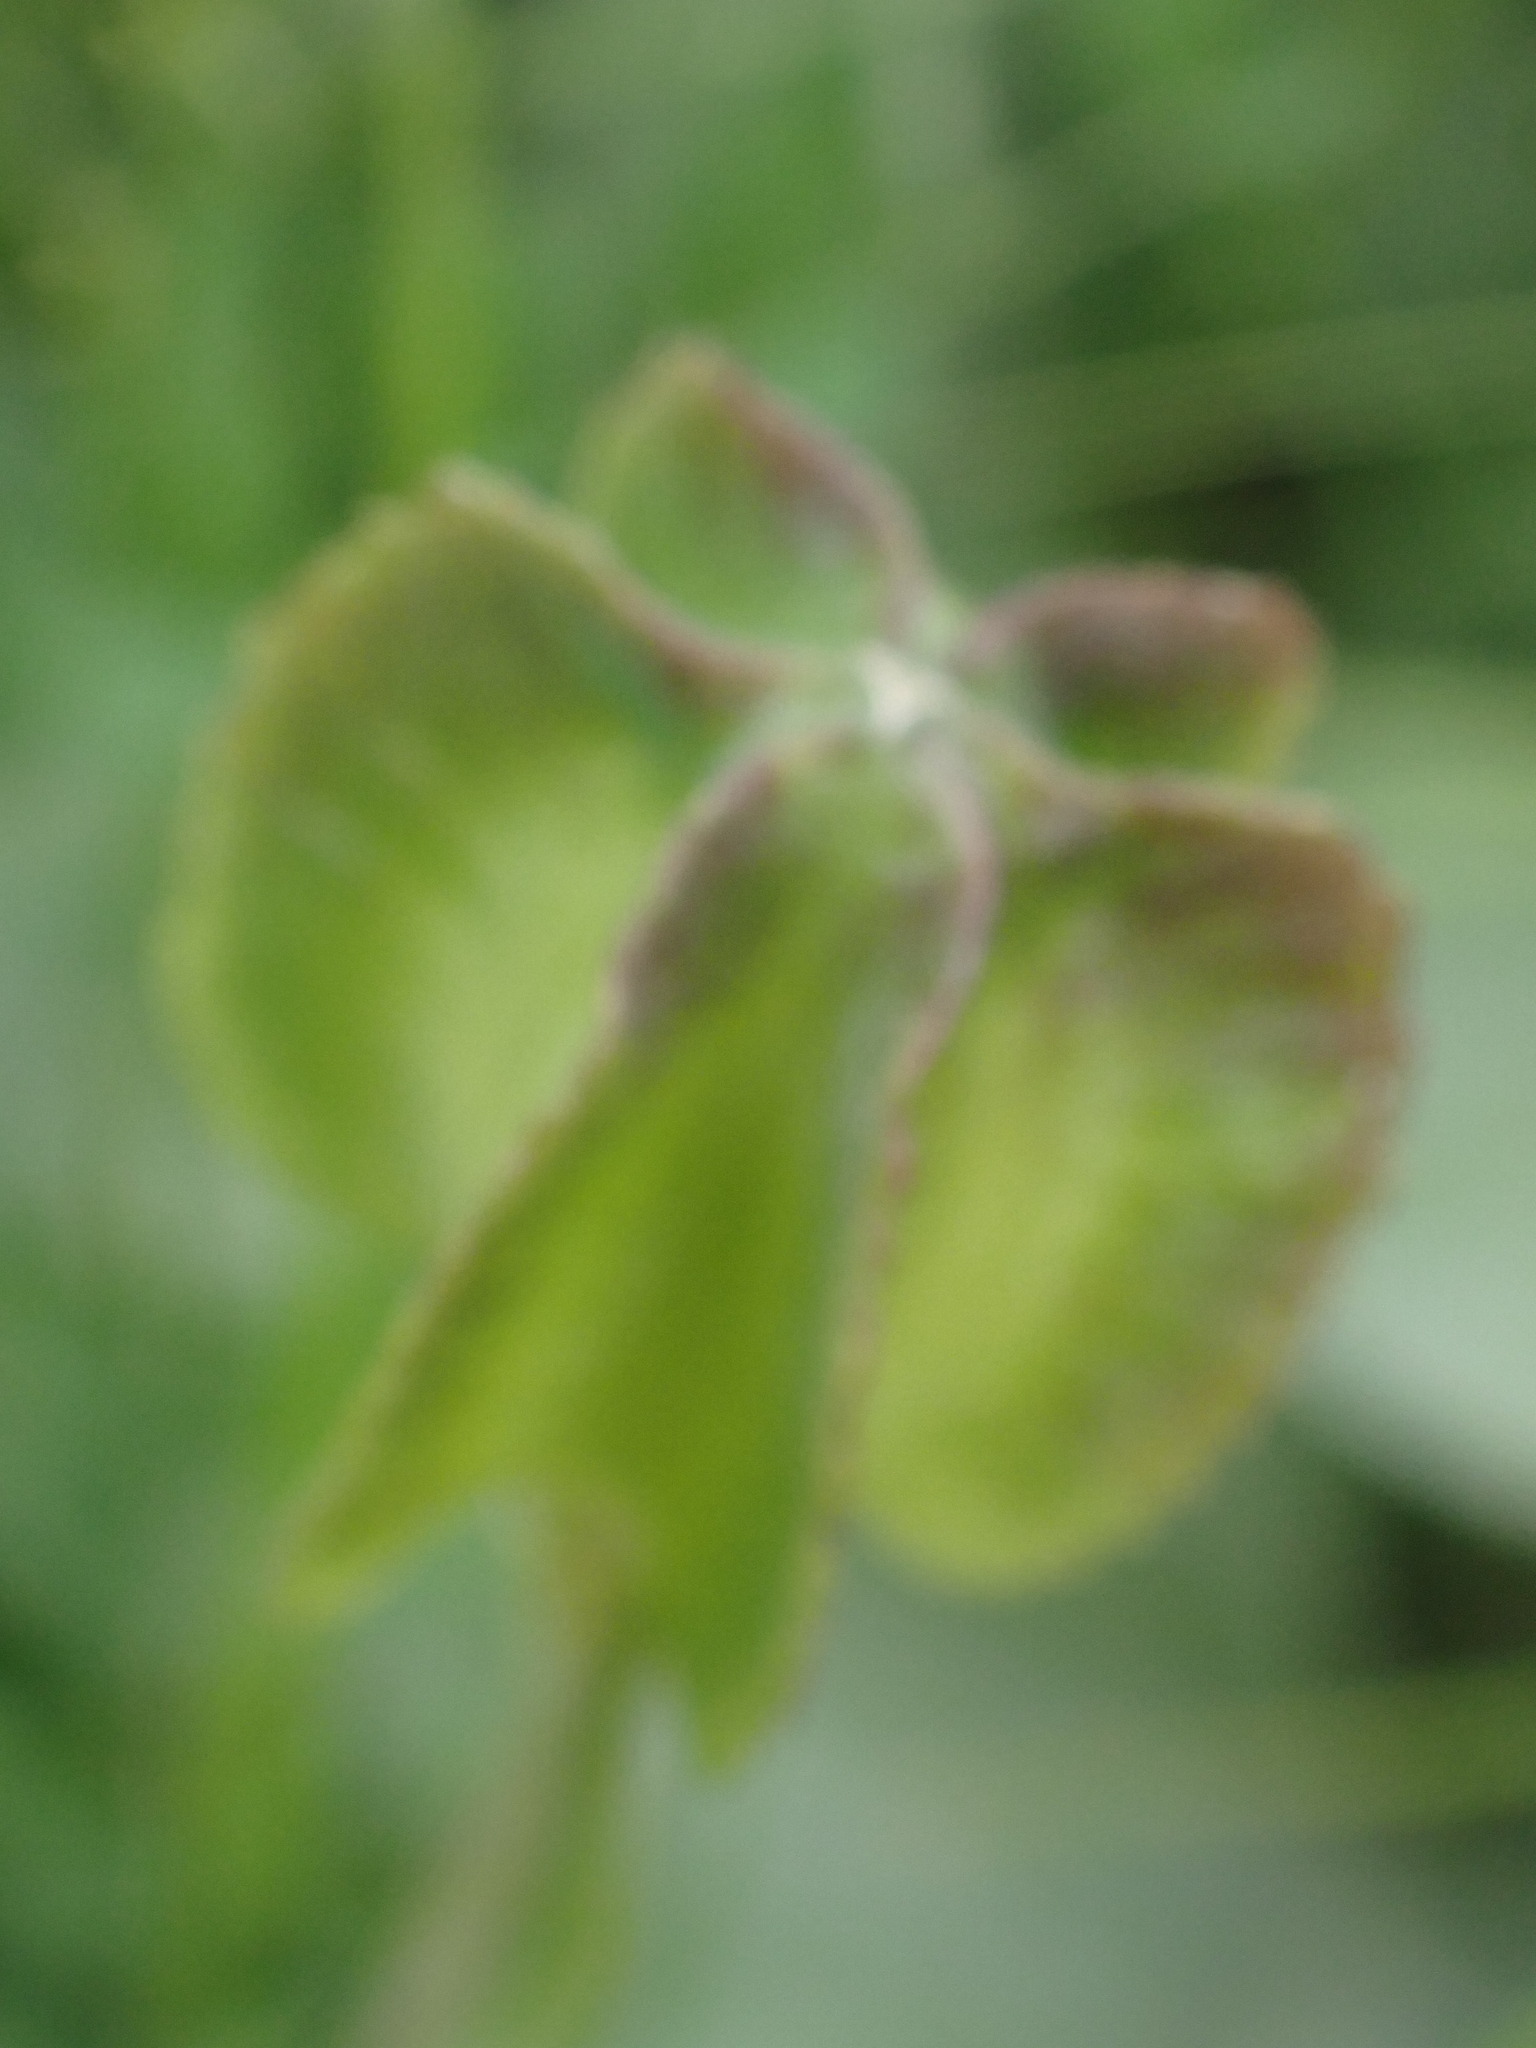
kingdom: Plantae
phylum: Tracheophyta
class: Liliopsida
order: Liliales
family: Liliaceae
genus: Fritillaria
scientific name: Fritillaria affinis
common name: Ojai fritillary
